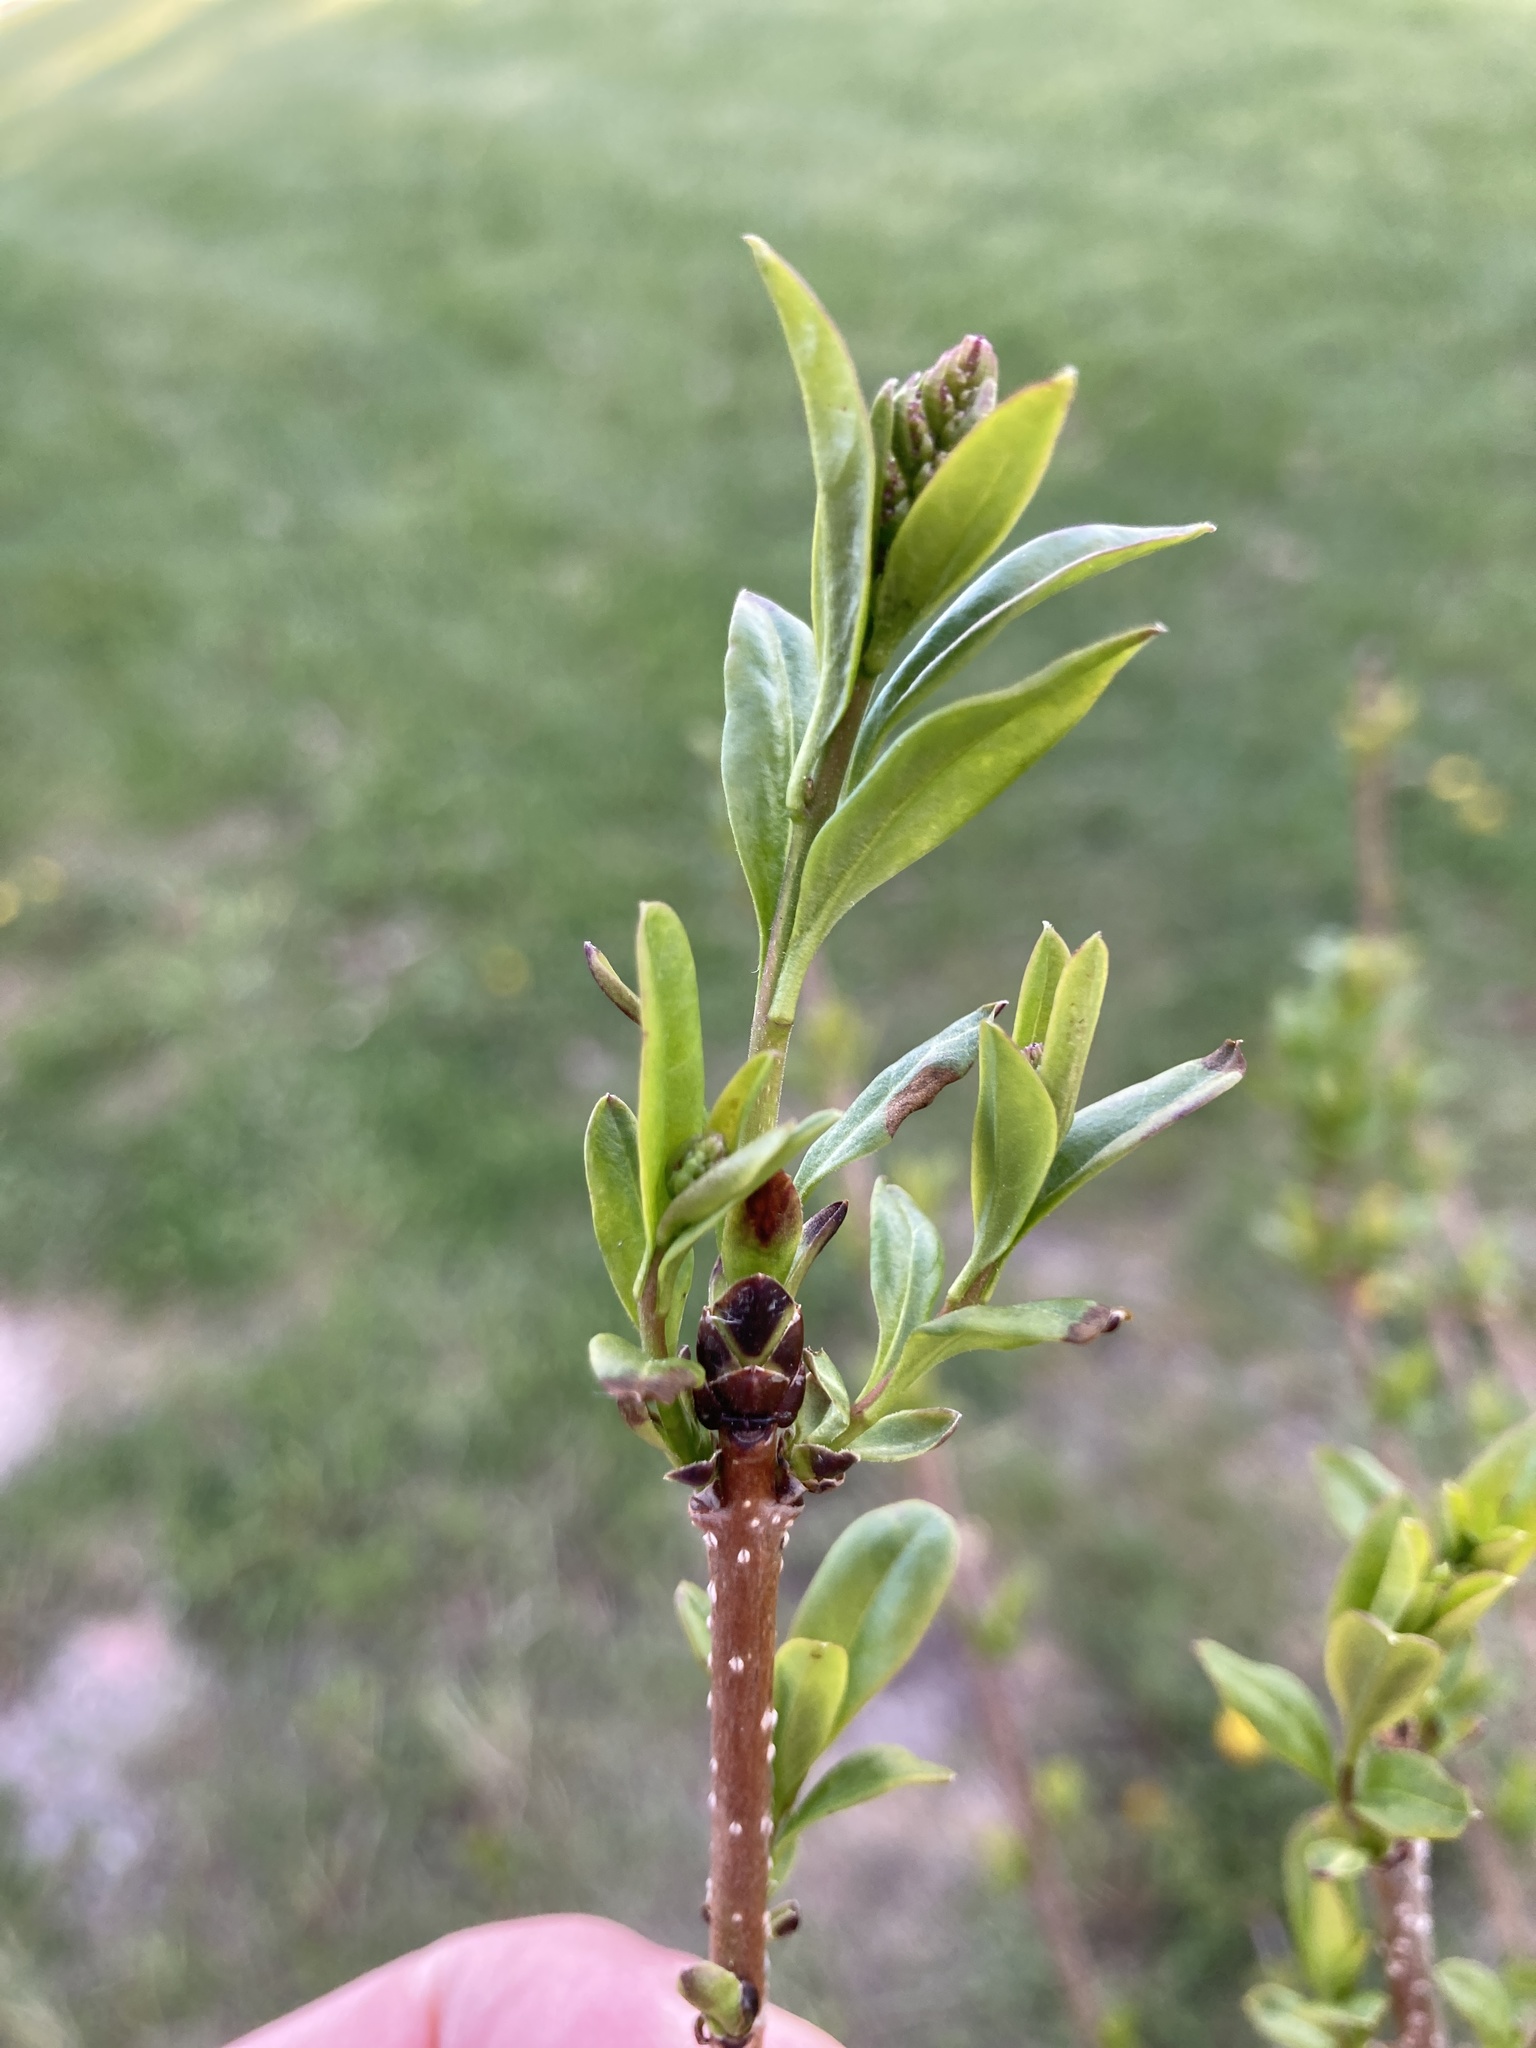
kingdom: Plantae
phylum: Tracheophyta
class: Magnoliopsida
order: Lamiales
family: Oleaceae
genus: Ligustrum
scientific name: Ligustrum
